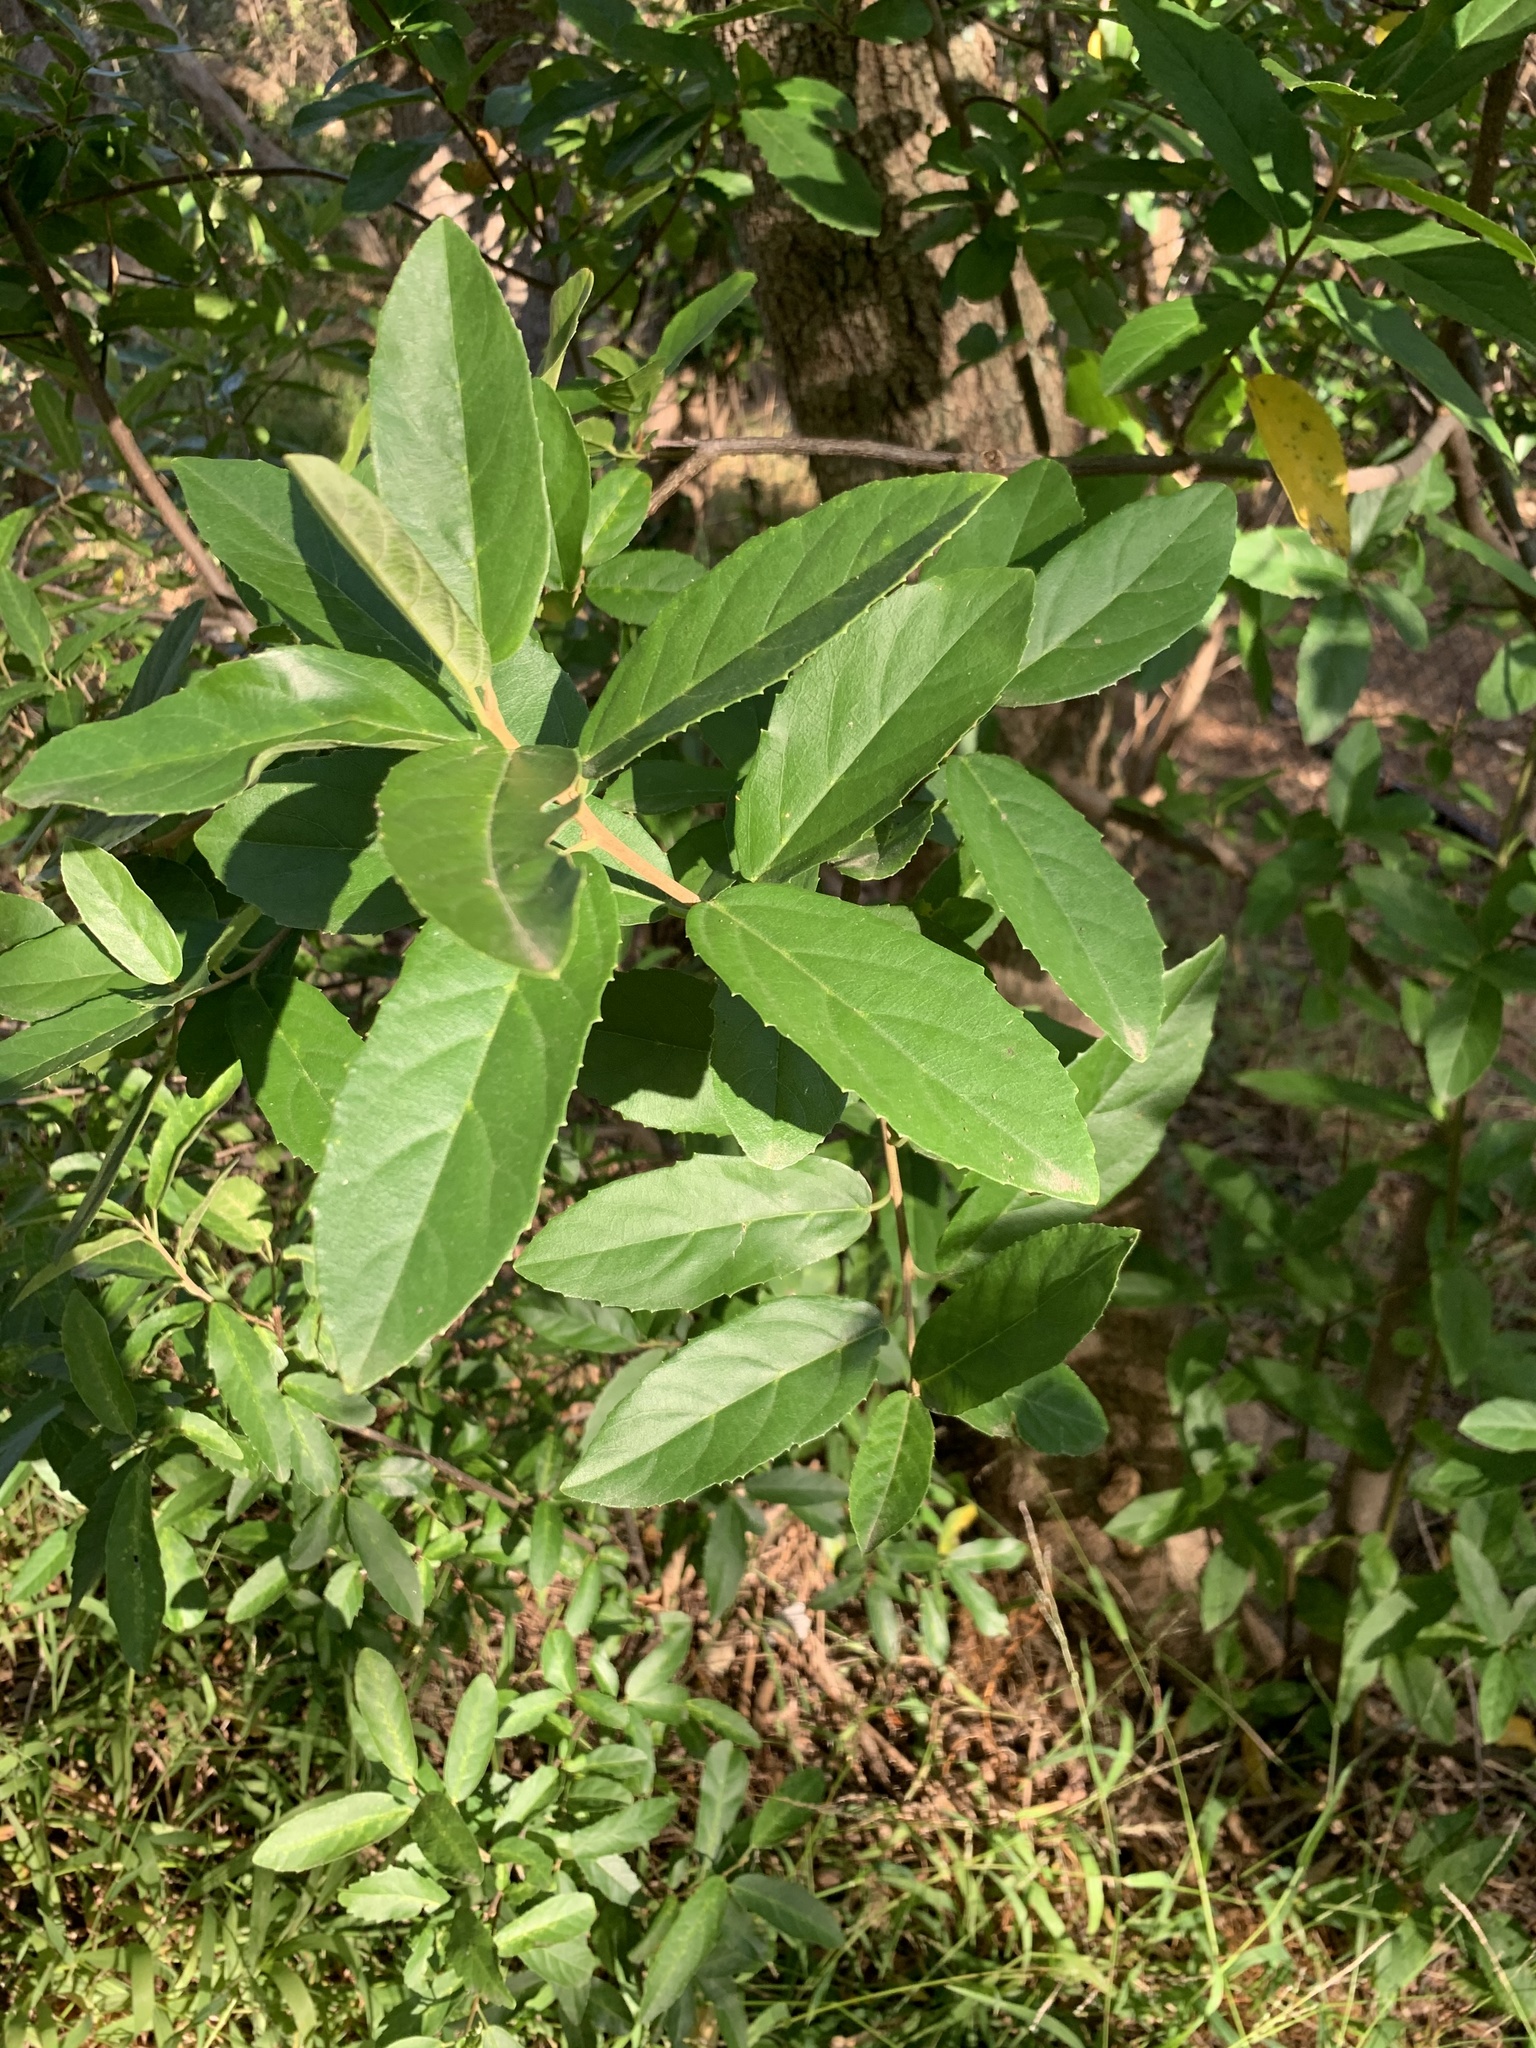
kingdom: Plantae
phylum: Tracheophyta
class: Magnoliopsida
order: Malpighiales
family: Achariaceae
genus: Kiggelaria
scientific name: Kiggelaria africana
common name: Wild peach
